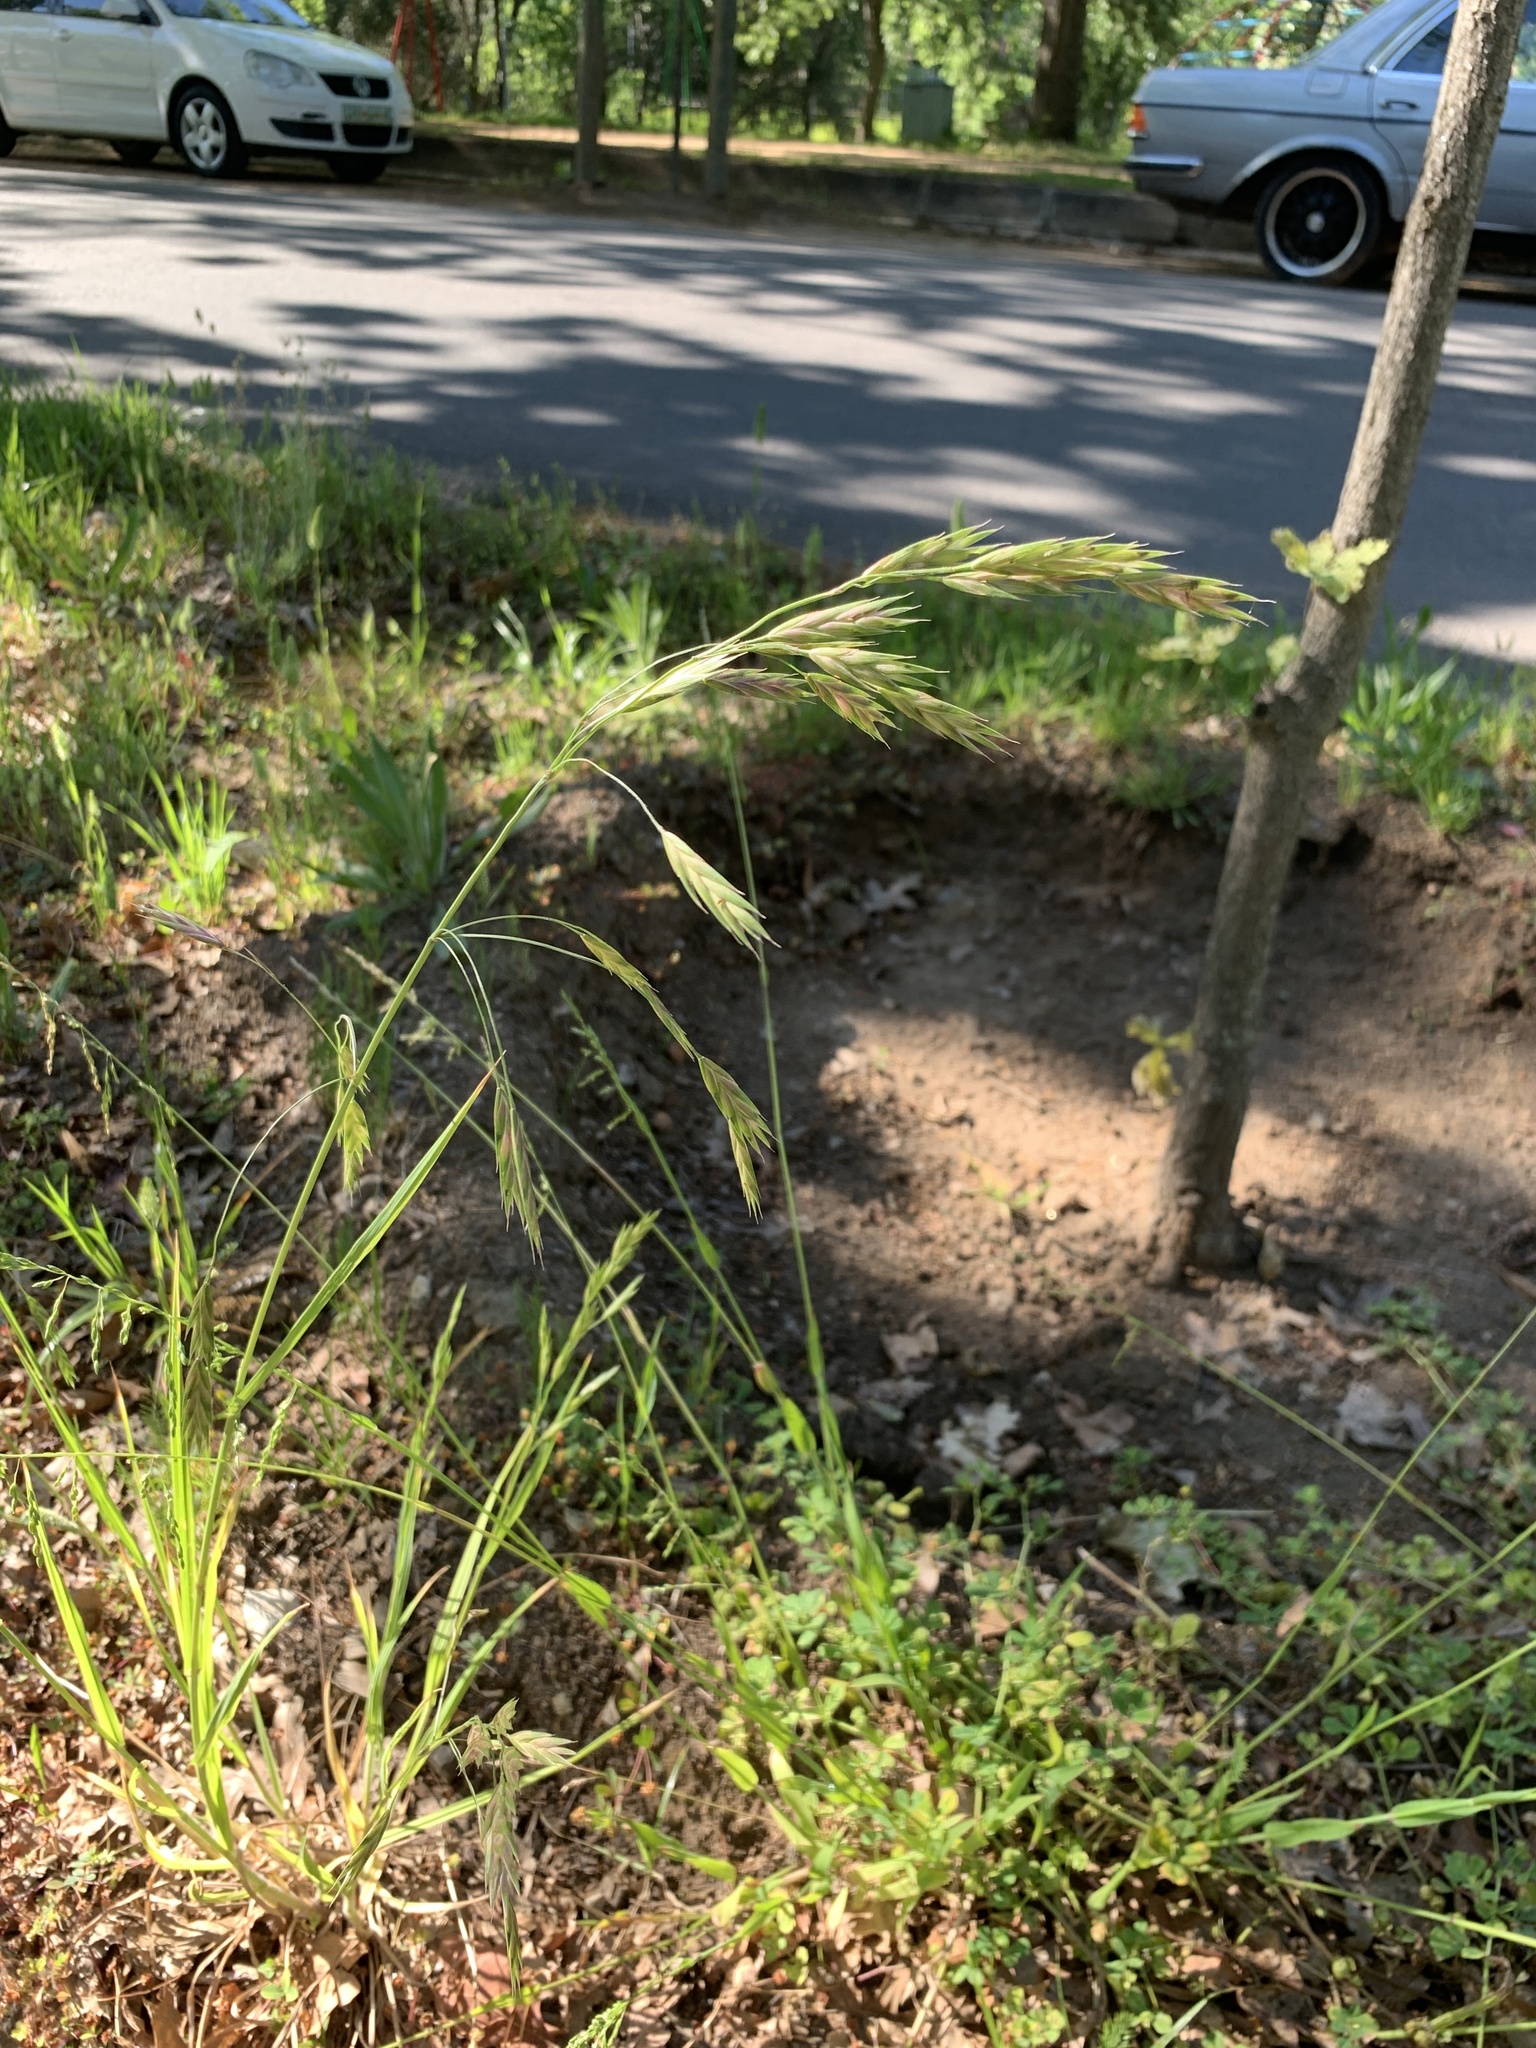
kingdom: Plantae
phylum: Tracheophyta
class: Liliopsida
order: Poales
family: Poaceae
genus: Bromus
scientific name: Bromus catharticus
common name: Rescuegrass
